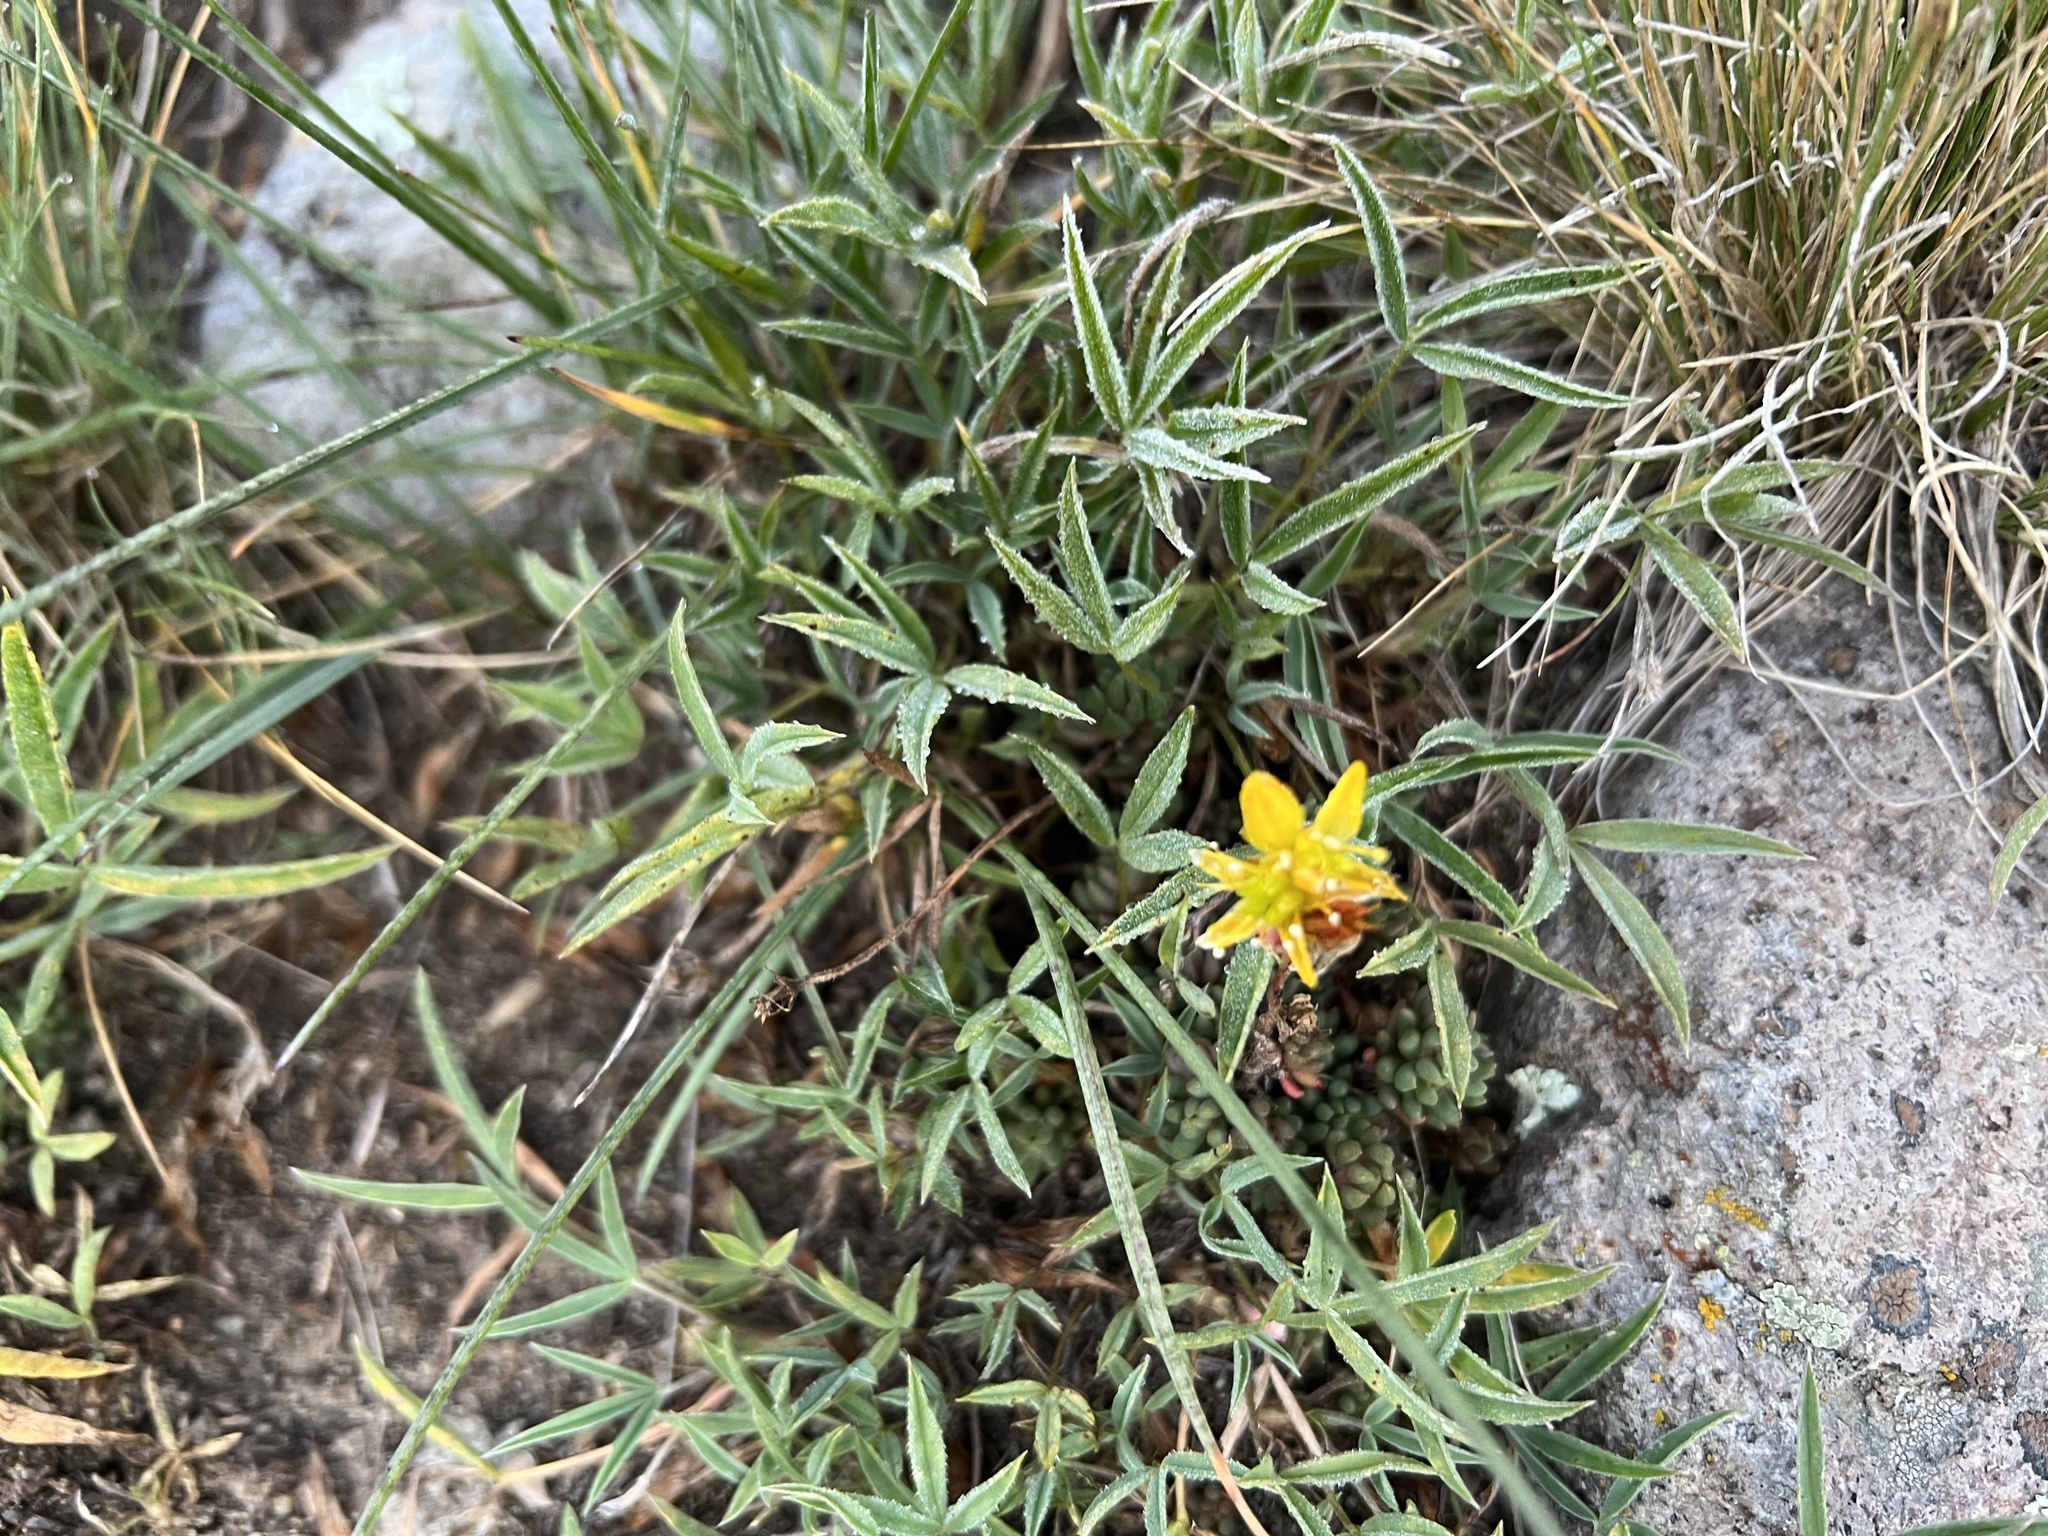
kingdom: Plantae
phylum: Tracheophyta
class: Magnoliopsida
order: Saxifragales
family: Crassulaceae
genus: Sedum
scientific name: Sedum lanceolatum
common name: Common stonecrop
